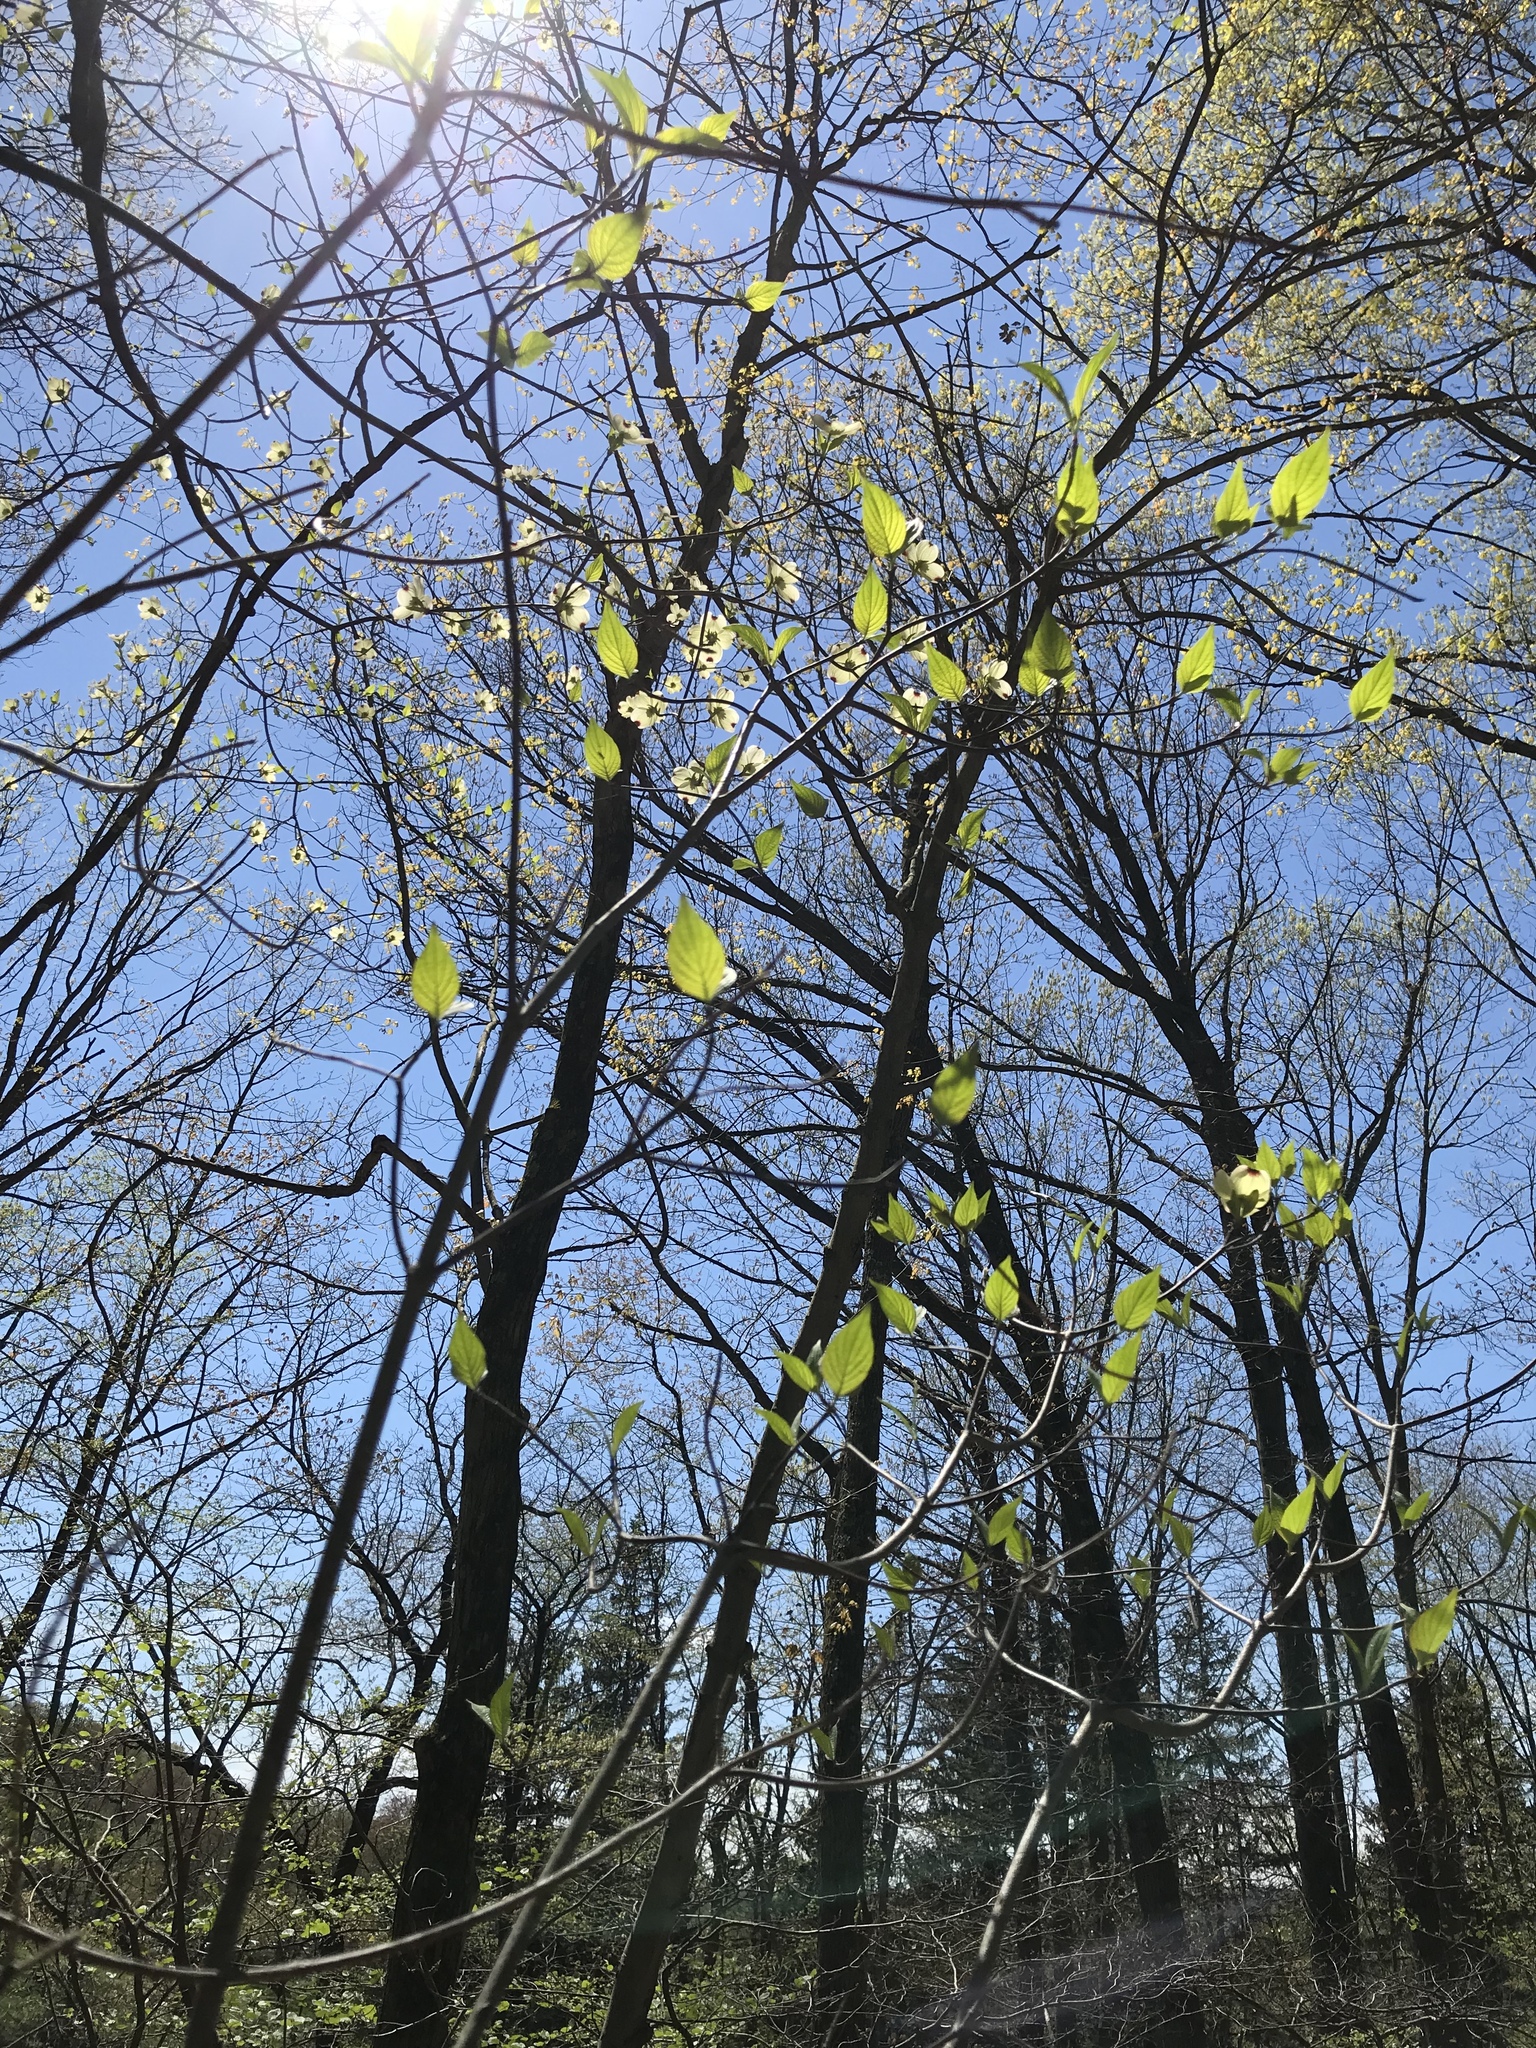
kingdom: Plantae
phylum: Tracheophyta
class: Magnoliopsida
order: Cornales
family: Cornaceae
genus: Cornus
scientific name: Cornus florida
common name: Flowering dogwood
